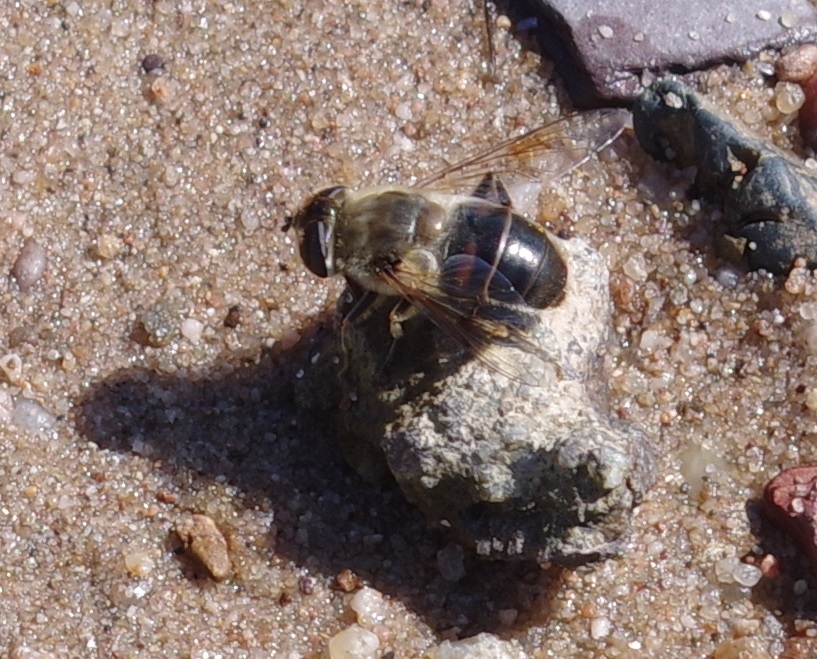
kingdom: Animalia
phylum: Arthropoda
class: Insecta
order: Diptera
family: Syrphidae
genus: Eristalis
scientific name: Eristalis tenax
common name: Drone fly
